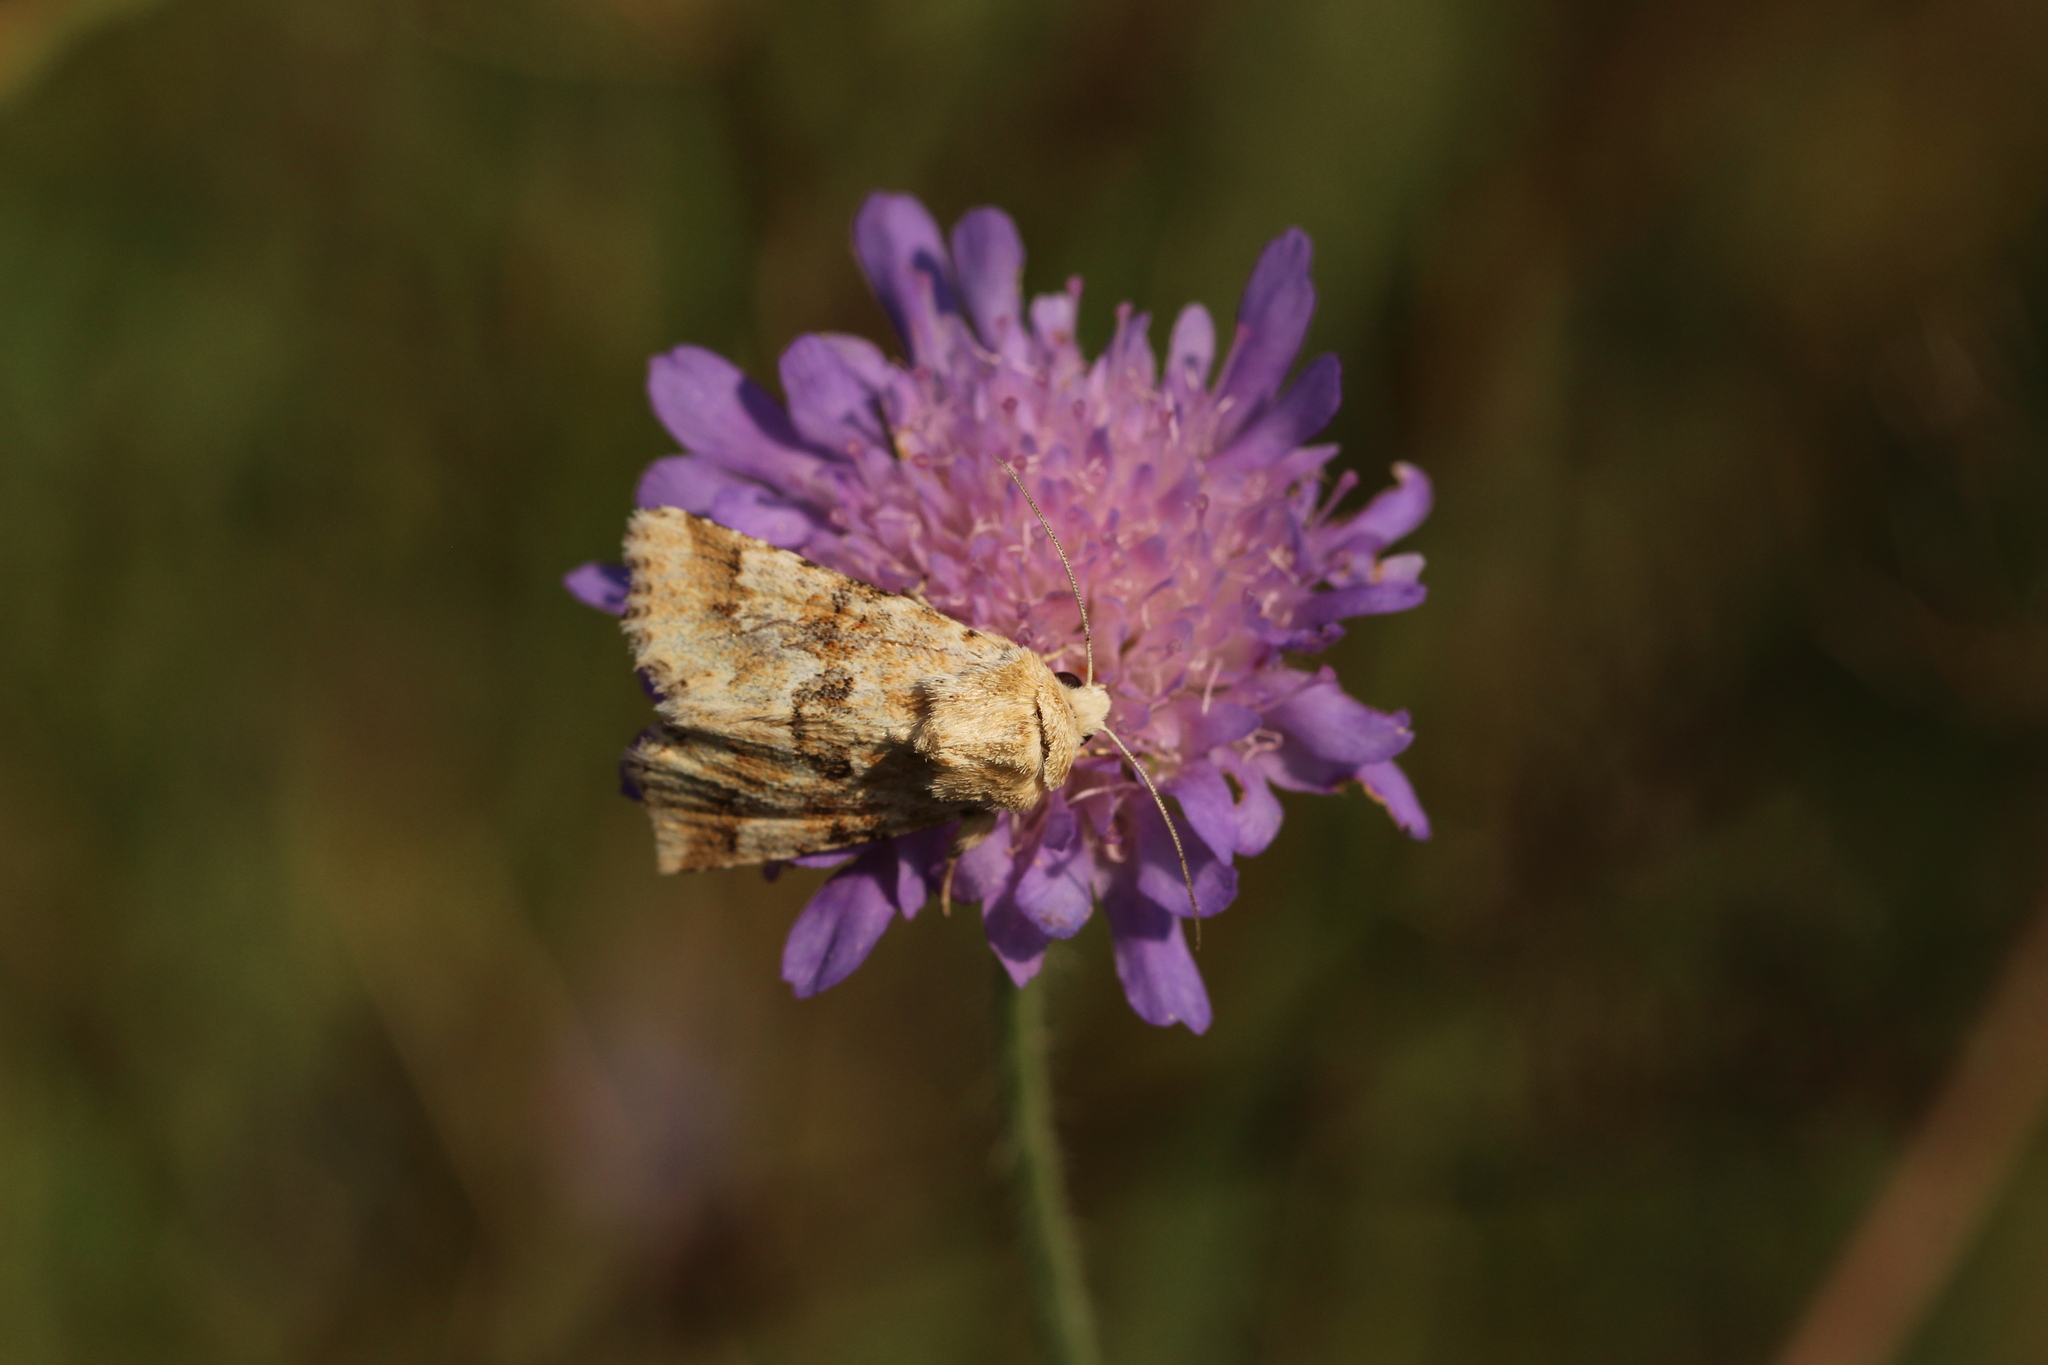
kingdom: Animalia
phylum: Arthropoda
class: Insecta
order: Lepidoptera
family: Noctuidae
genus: Eremobia
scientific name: Eremobia ochroleuca
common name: Dusky sallow
